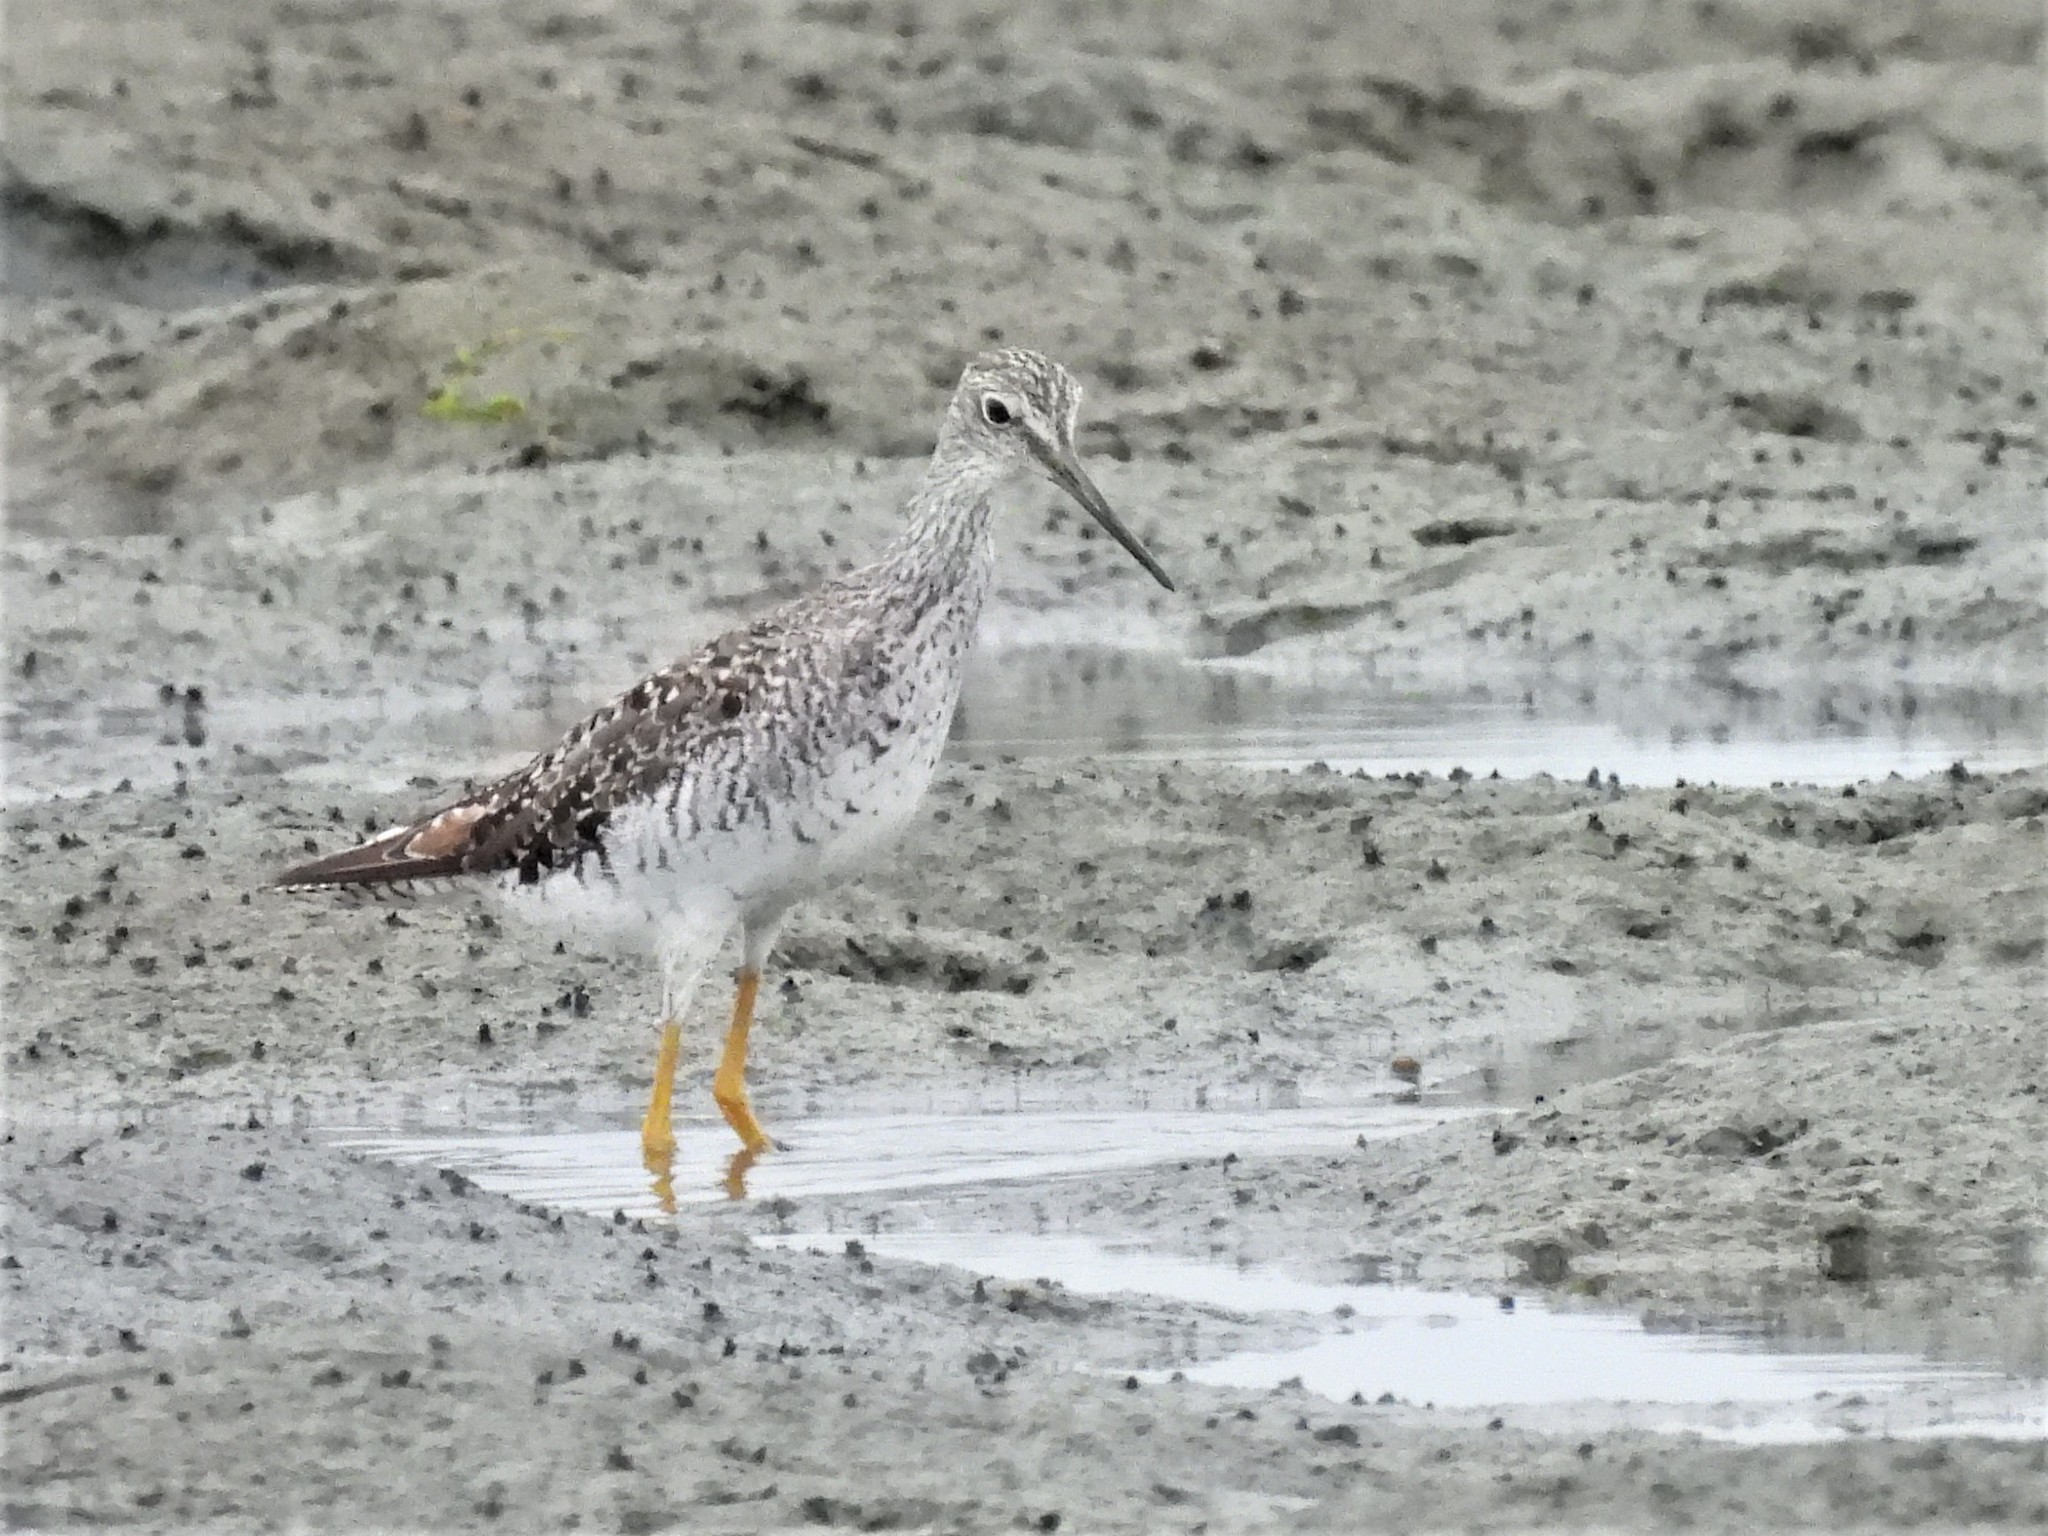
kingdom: Animalia
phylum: Chordata
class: Aves
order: Charadriiformes
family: Scolopacidae
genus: Tringa
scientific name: Tringa melanoleuca
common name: Greater yellowlegs
